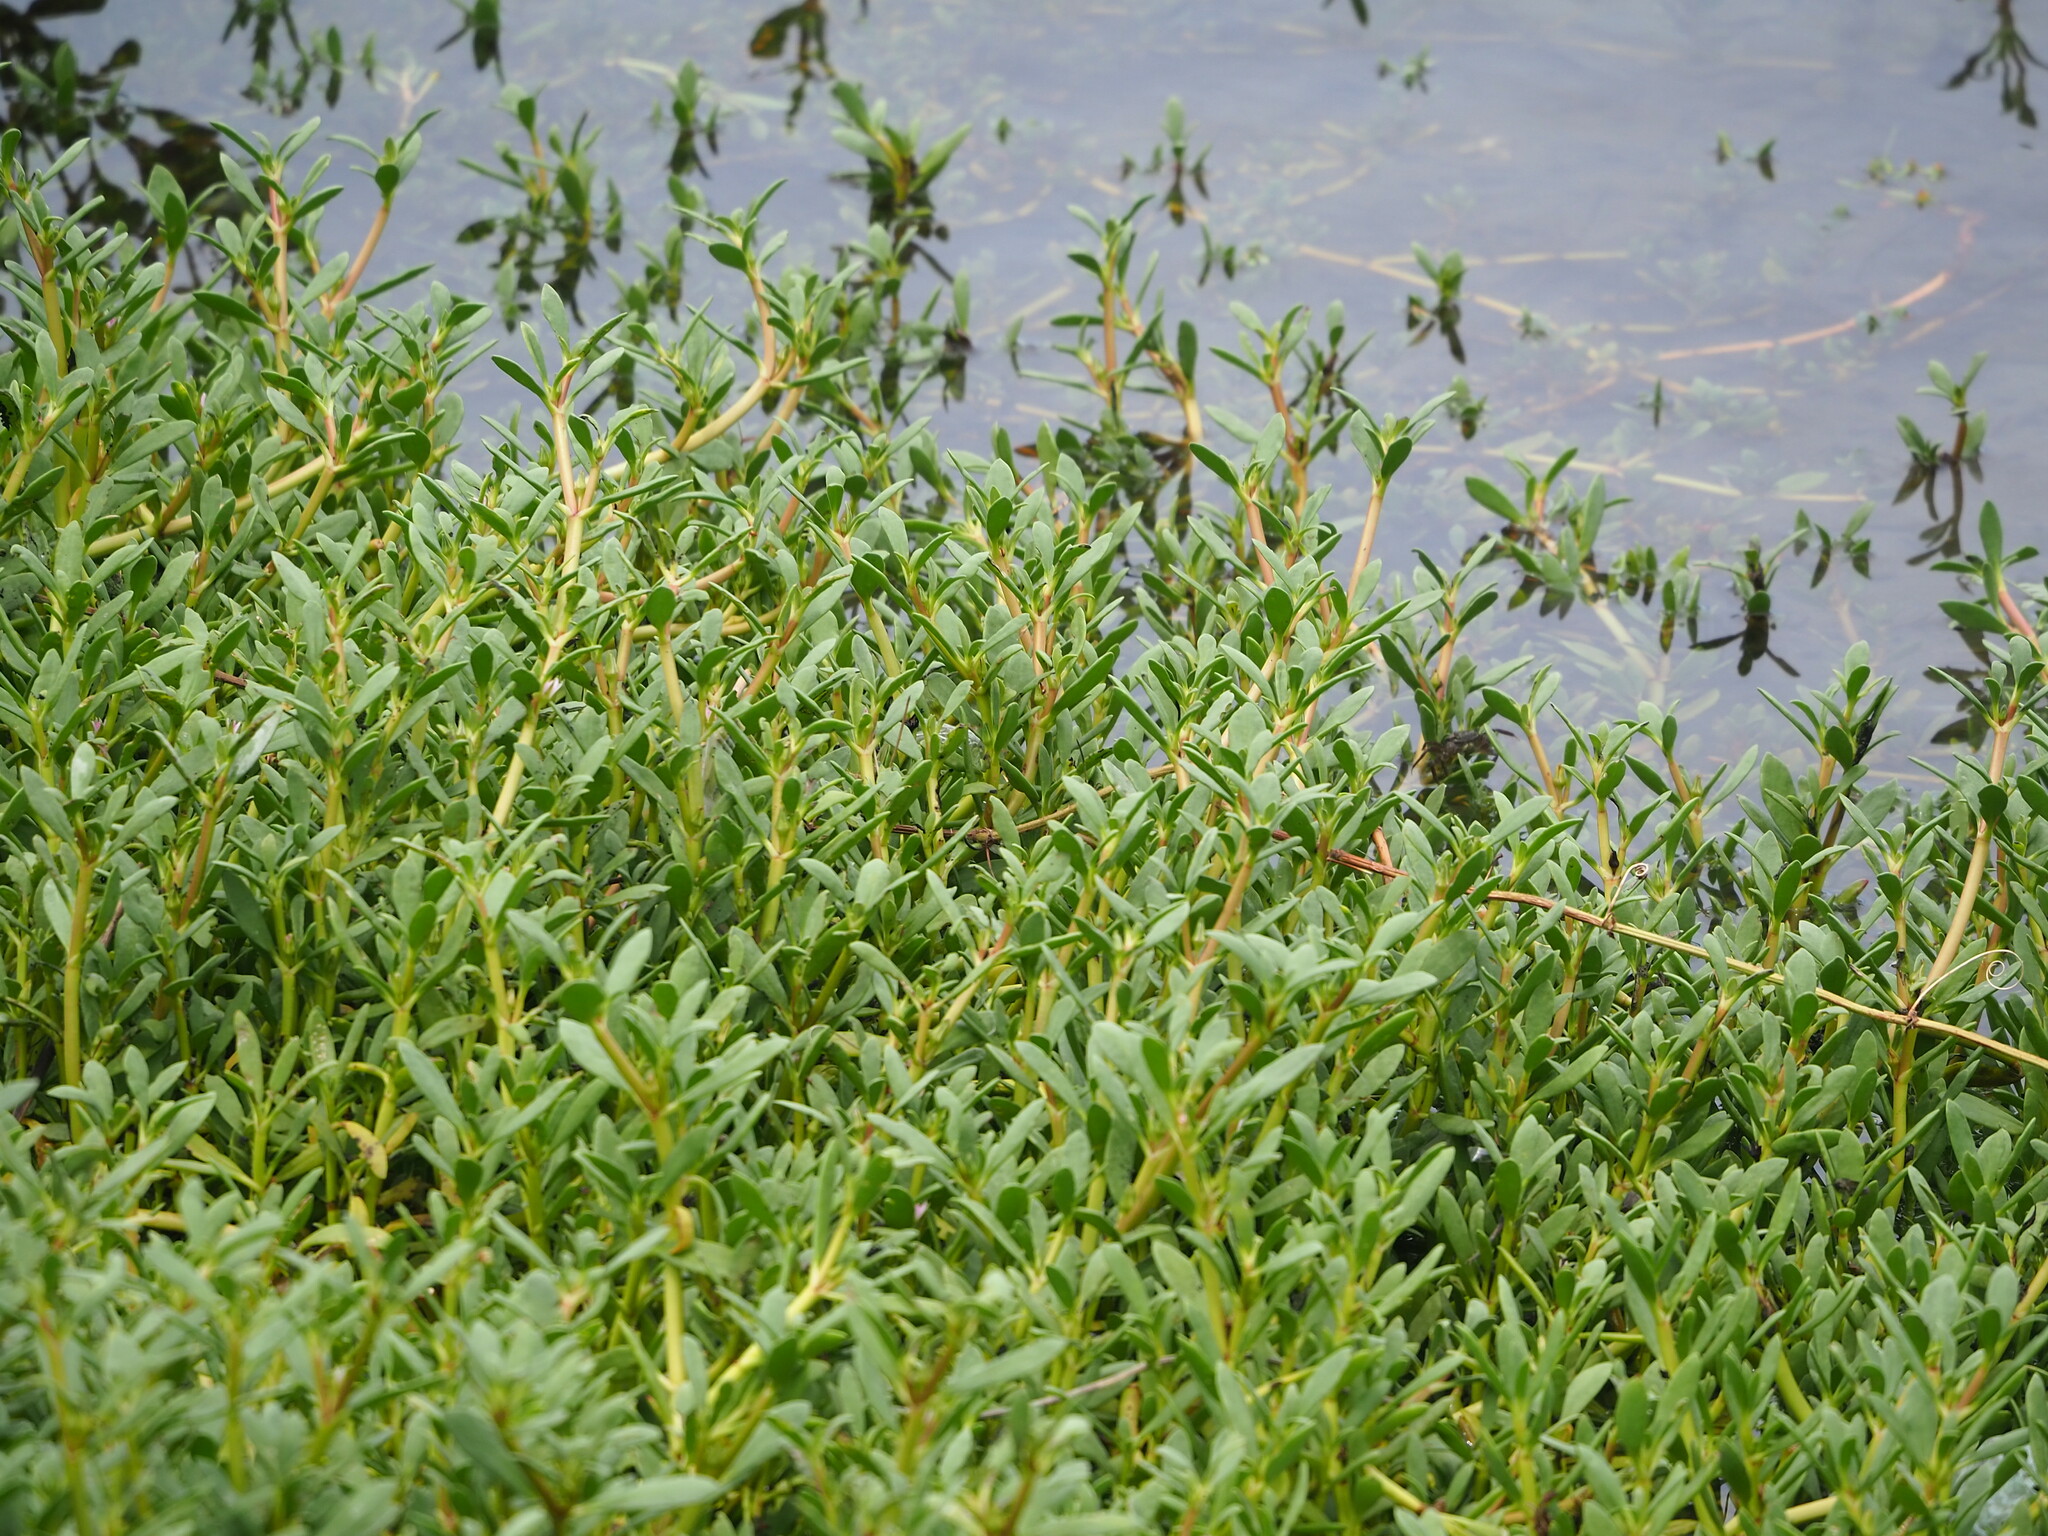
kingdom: Plantae
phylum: Tracheophyta
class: Magnoliopsida
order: Caryophyllales
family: Aizoaceae
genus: Sesuvium
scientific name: Sesuvium portulacastrum
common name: Sea-purslane
